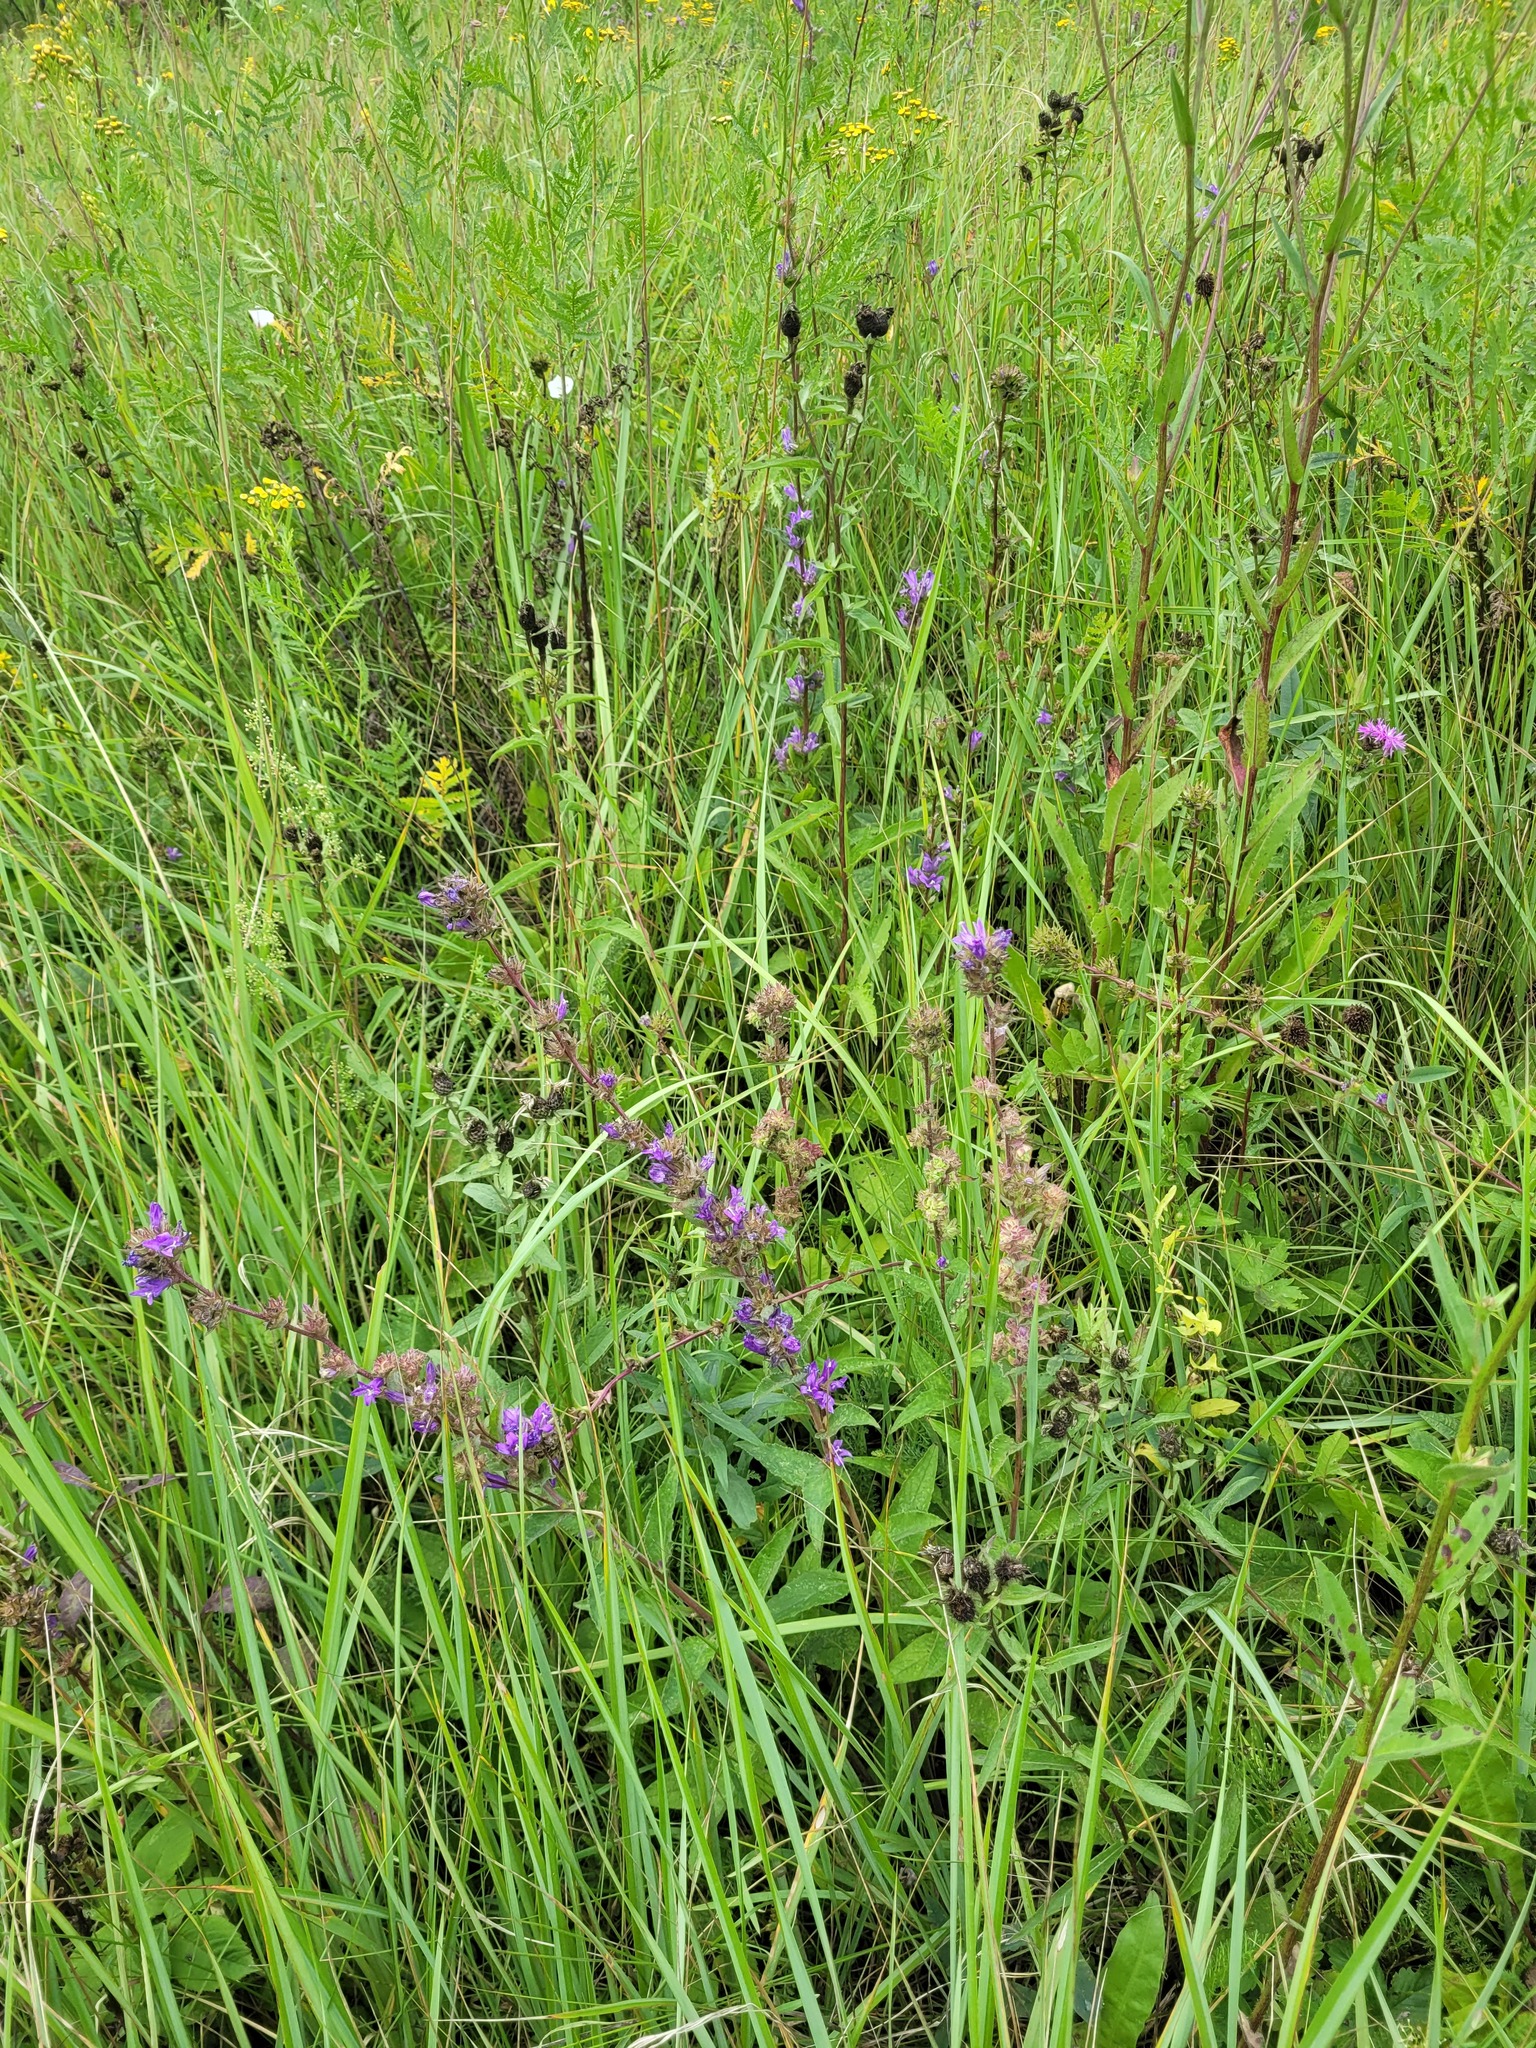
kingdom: Plantae
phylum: Tracheophyta
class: Magnoliopsida
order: Asterales
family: Campanulaceae
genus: Campanula
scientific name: Campanula glomerata
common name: Clustered bellflower
